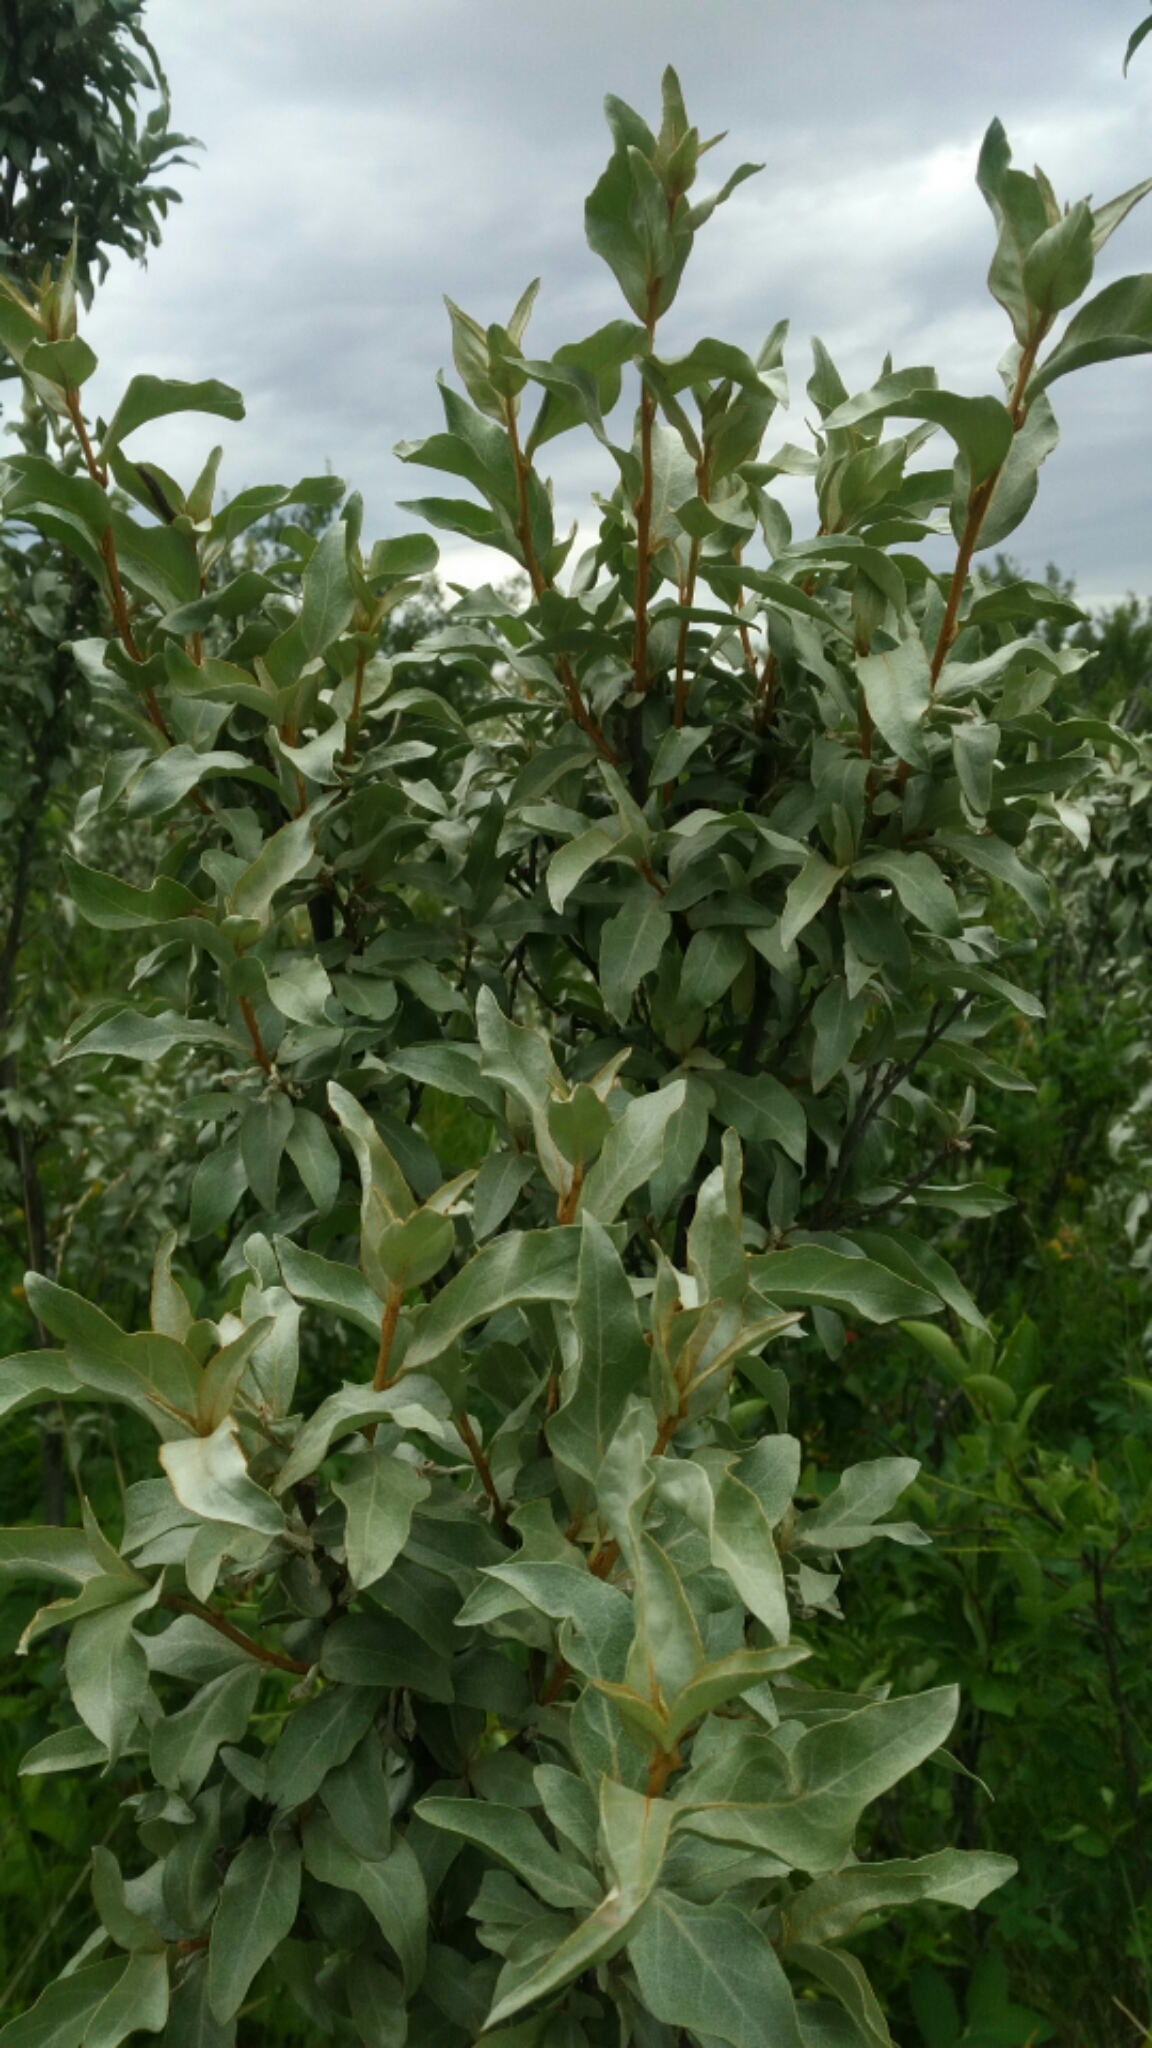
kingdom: Plantae
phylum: Tracheophyta
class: Magnoliopsida
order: Rosales
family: Elaeagnaceae
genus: Elaeagnus
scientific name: Elaeagnus commutata
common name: Silverberry
